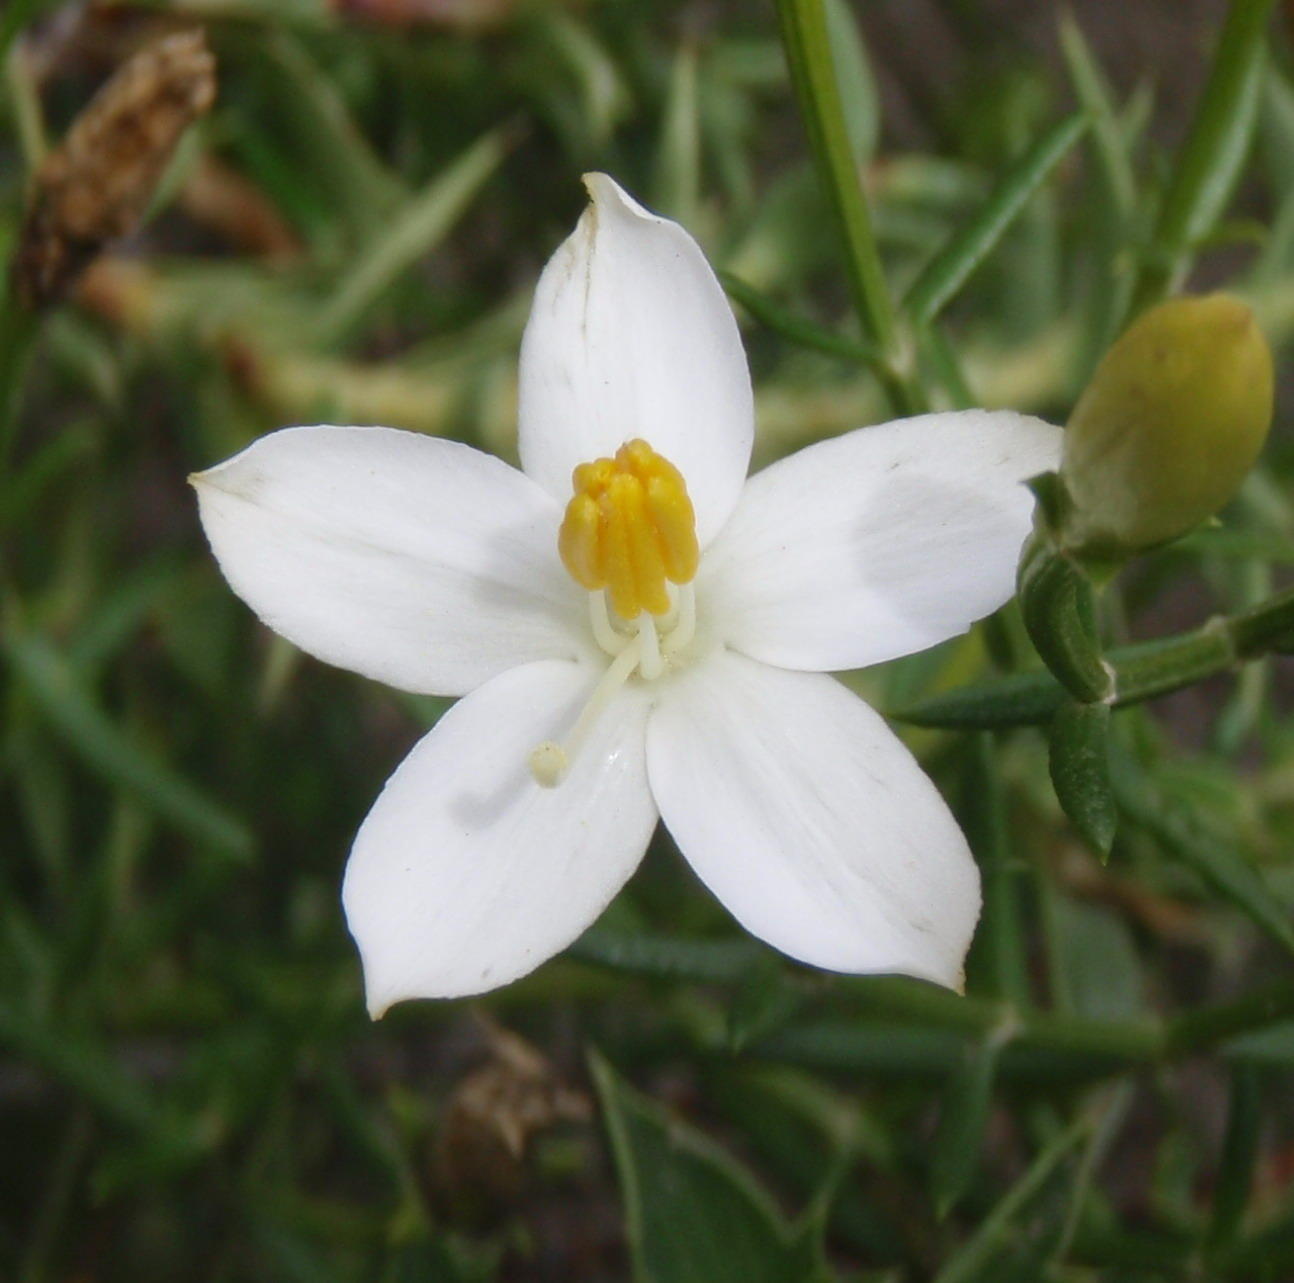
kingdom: Plantae
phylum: Tracheophyta
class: Magnoliopsida
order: Gentianales
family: Gentianaceae
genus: Chironia
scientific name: Chironia baccifera
